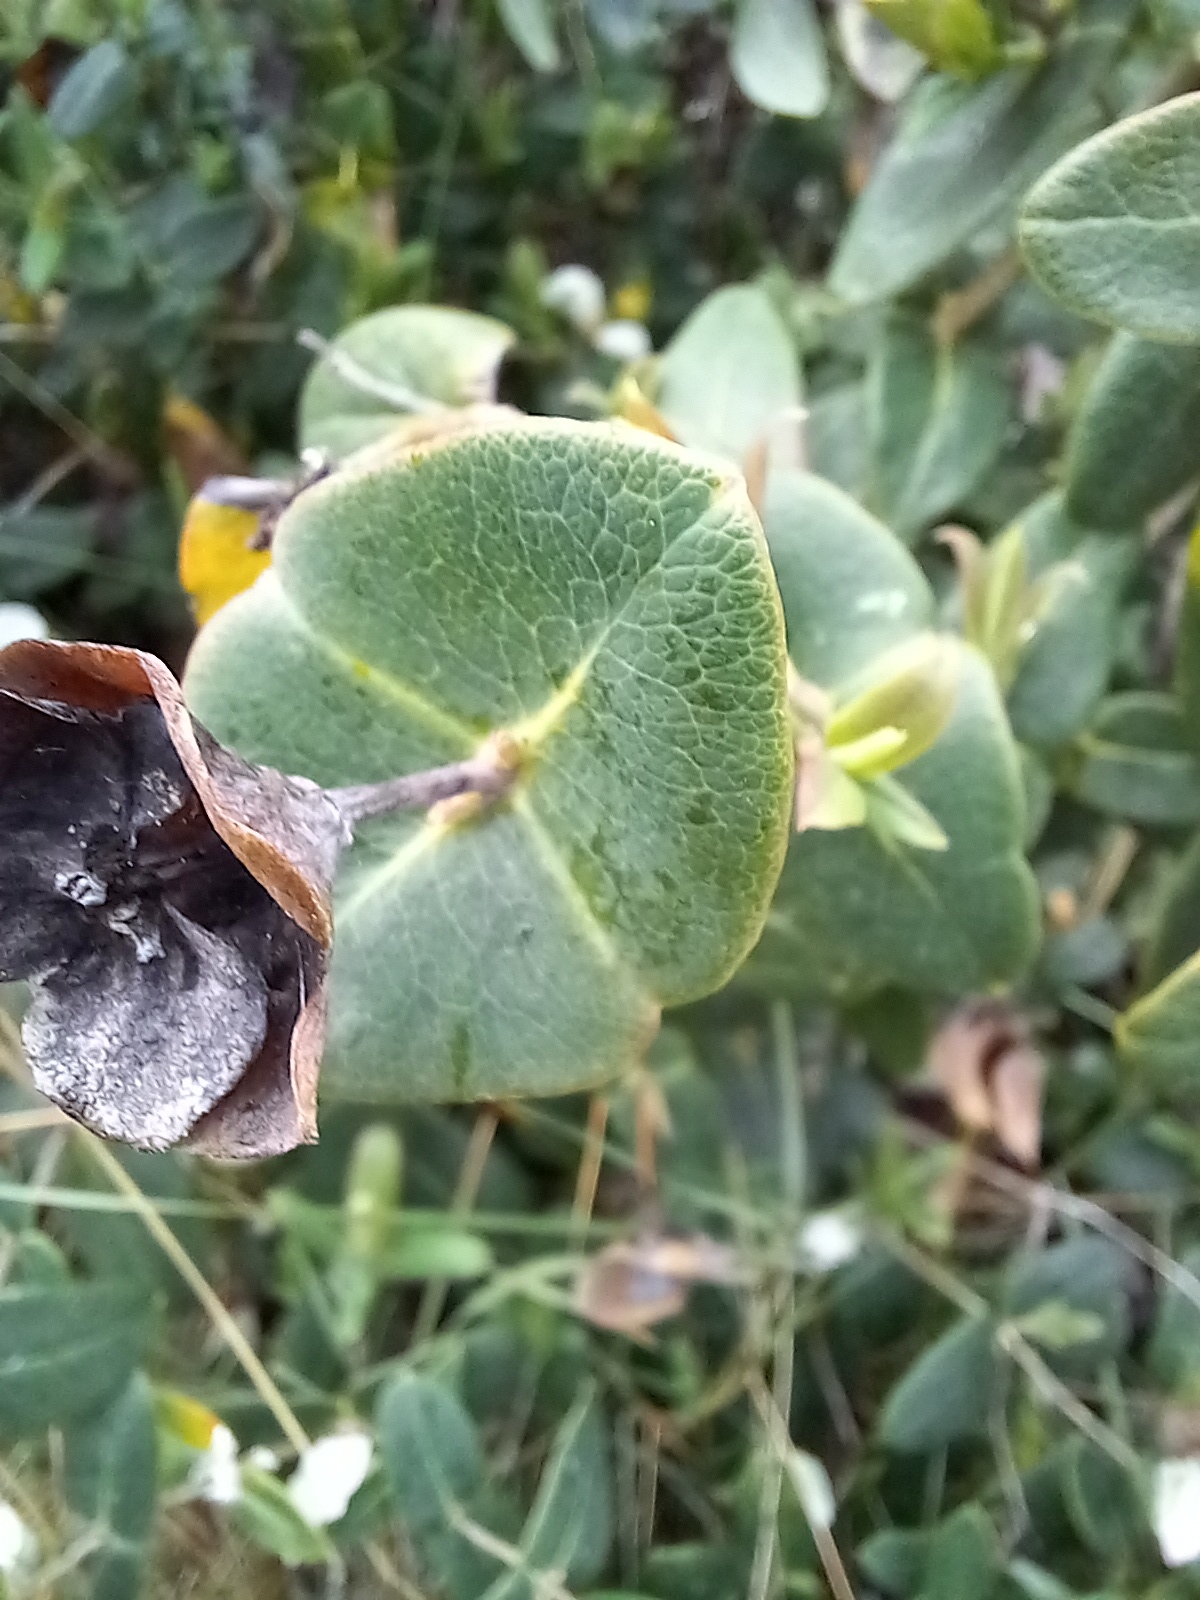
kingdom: Plantae
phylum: Tracheophyta
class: Magnoliopsida
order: Dipsacales
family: Caprifoliaceae
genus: Lonicera
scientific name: Lonicera periclymenum
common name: European honeysuckle
